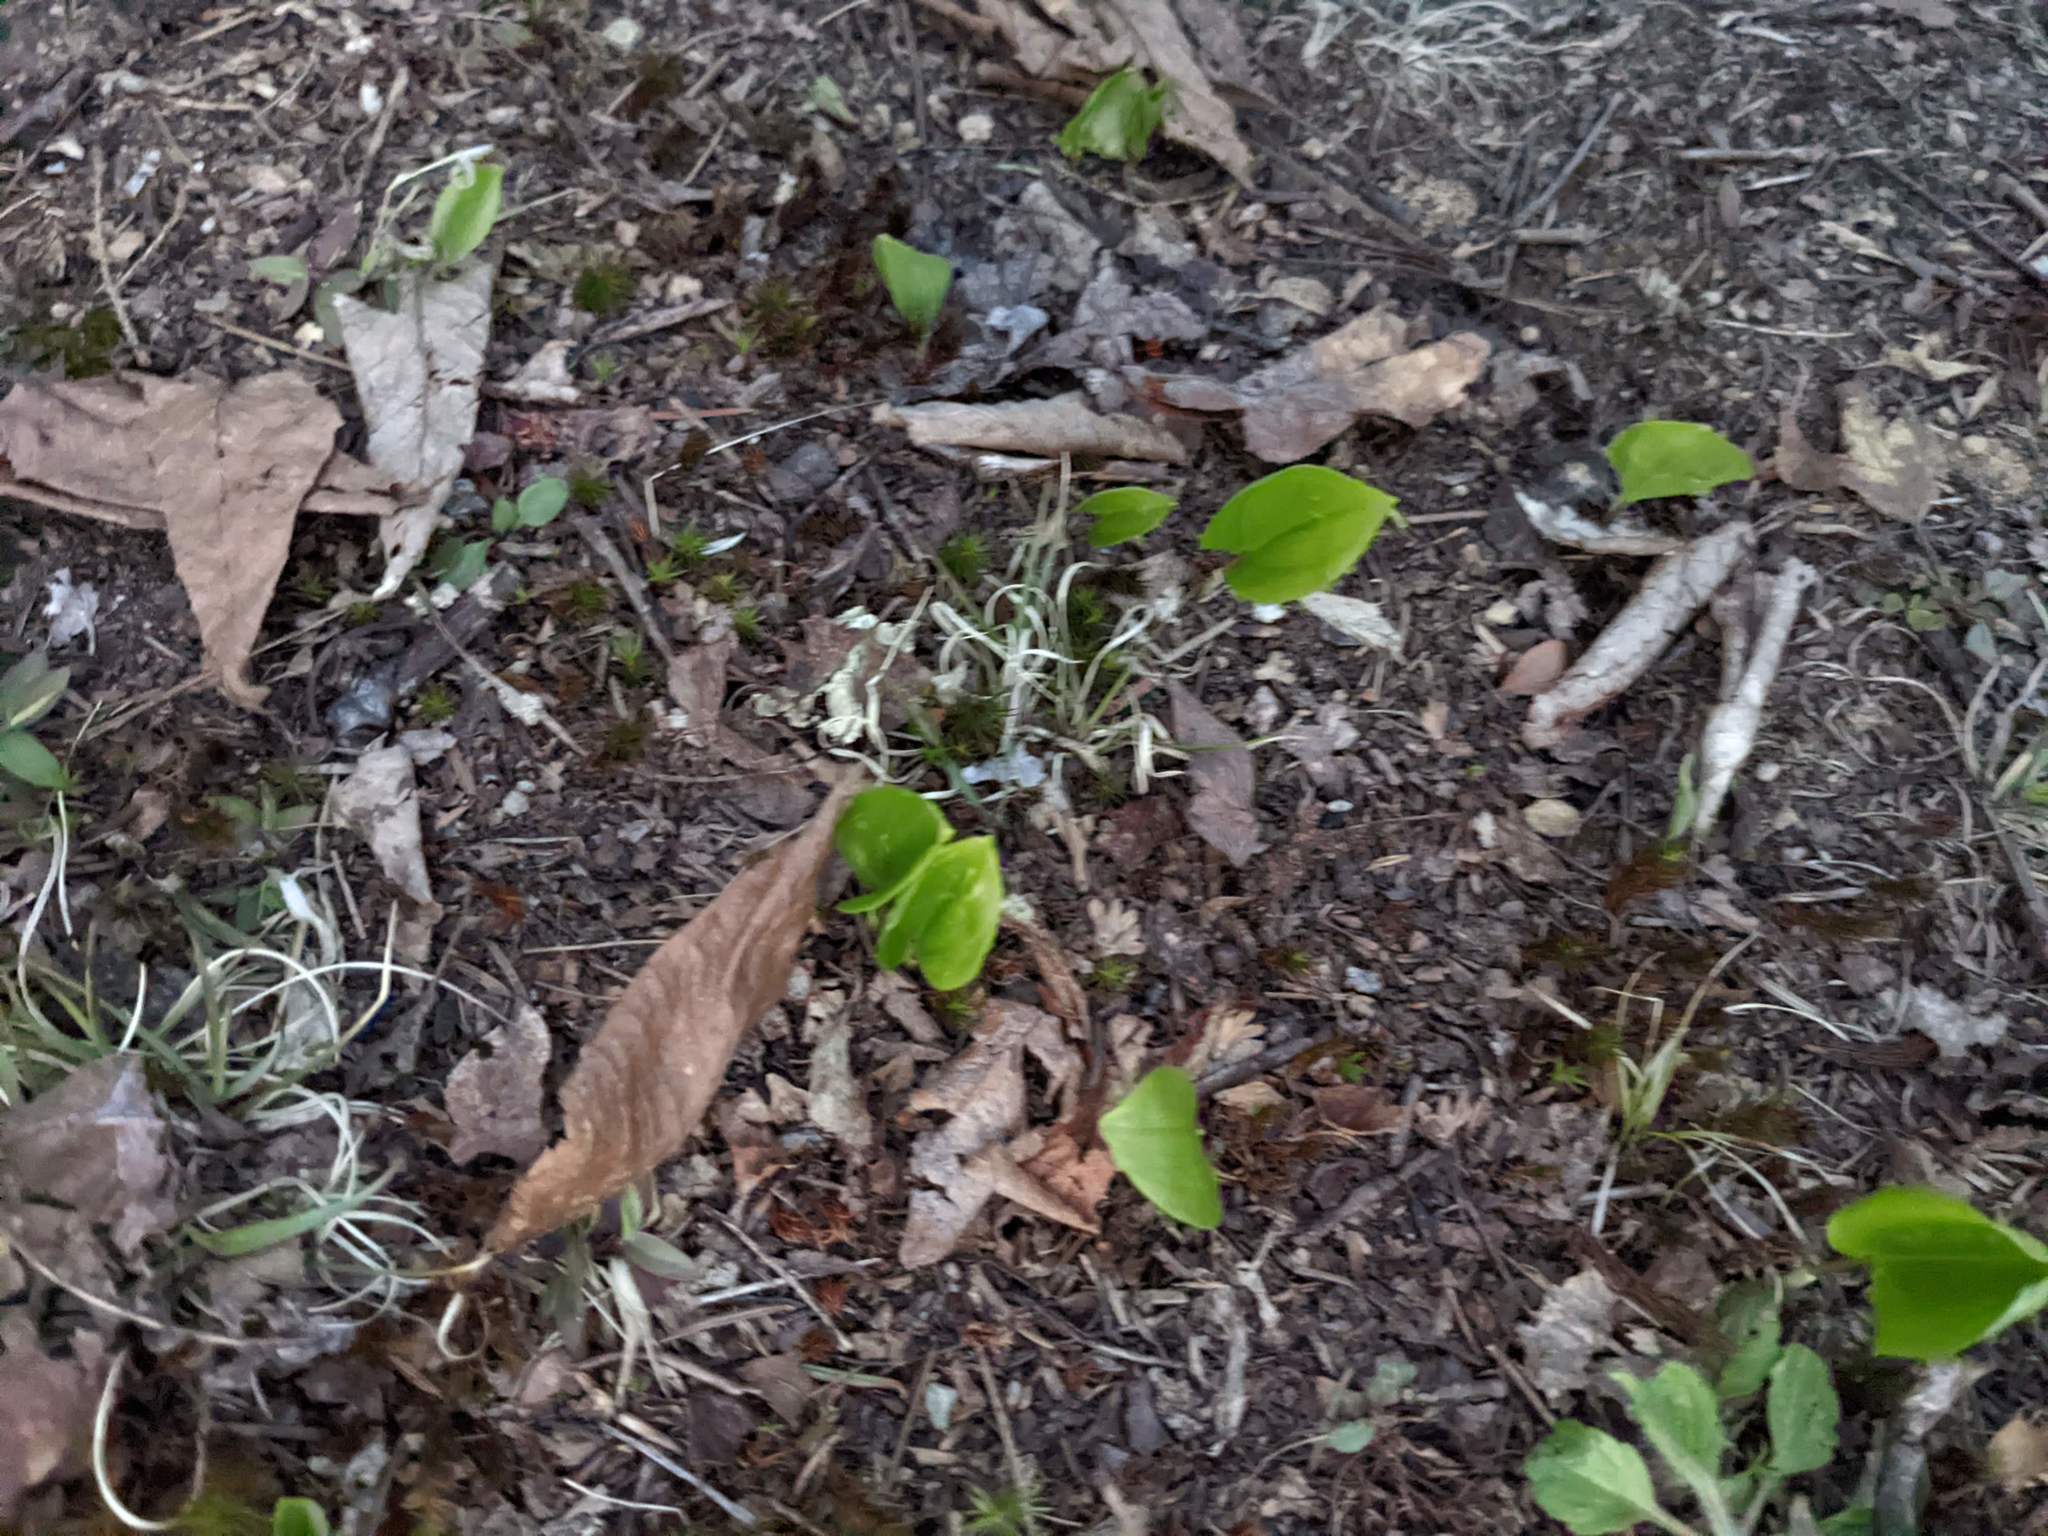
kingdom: Plantae
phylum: Tracheophyta
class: Liliopsida
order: Asparagales
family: Asparagaceae
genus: Maianthemum
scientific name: Maianthemum canadense
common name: False lily-of-the-valley
